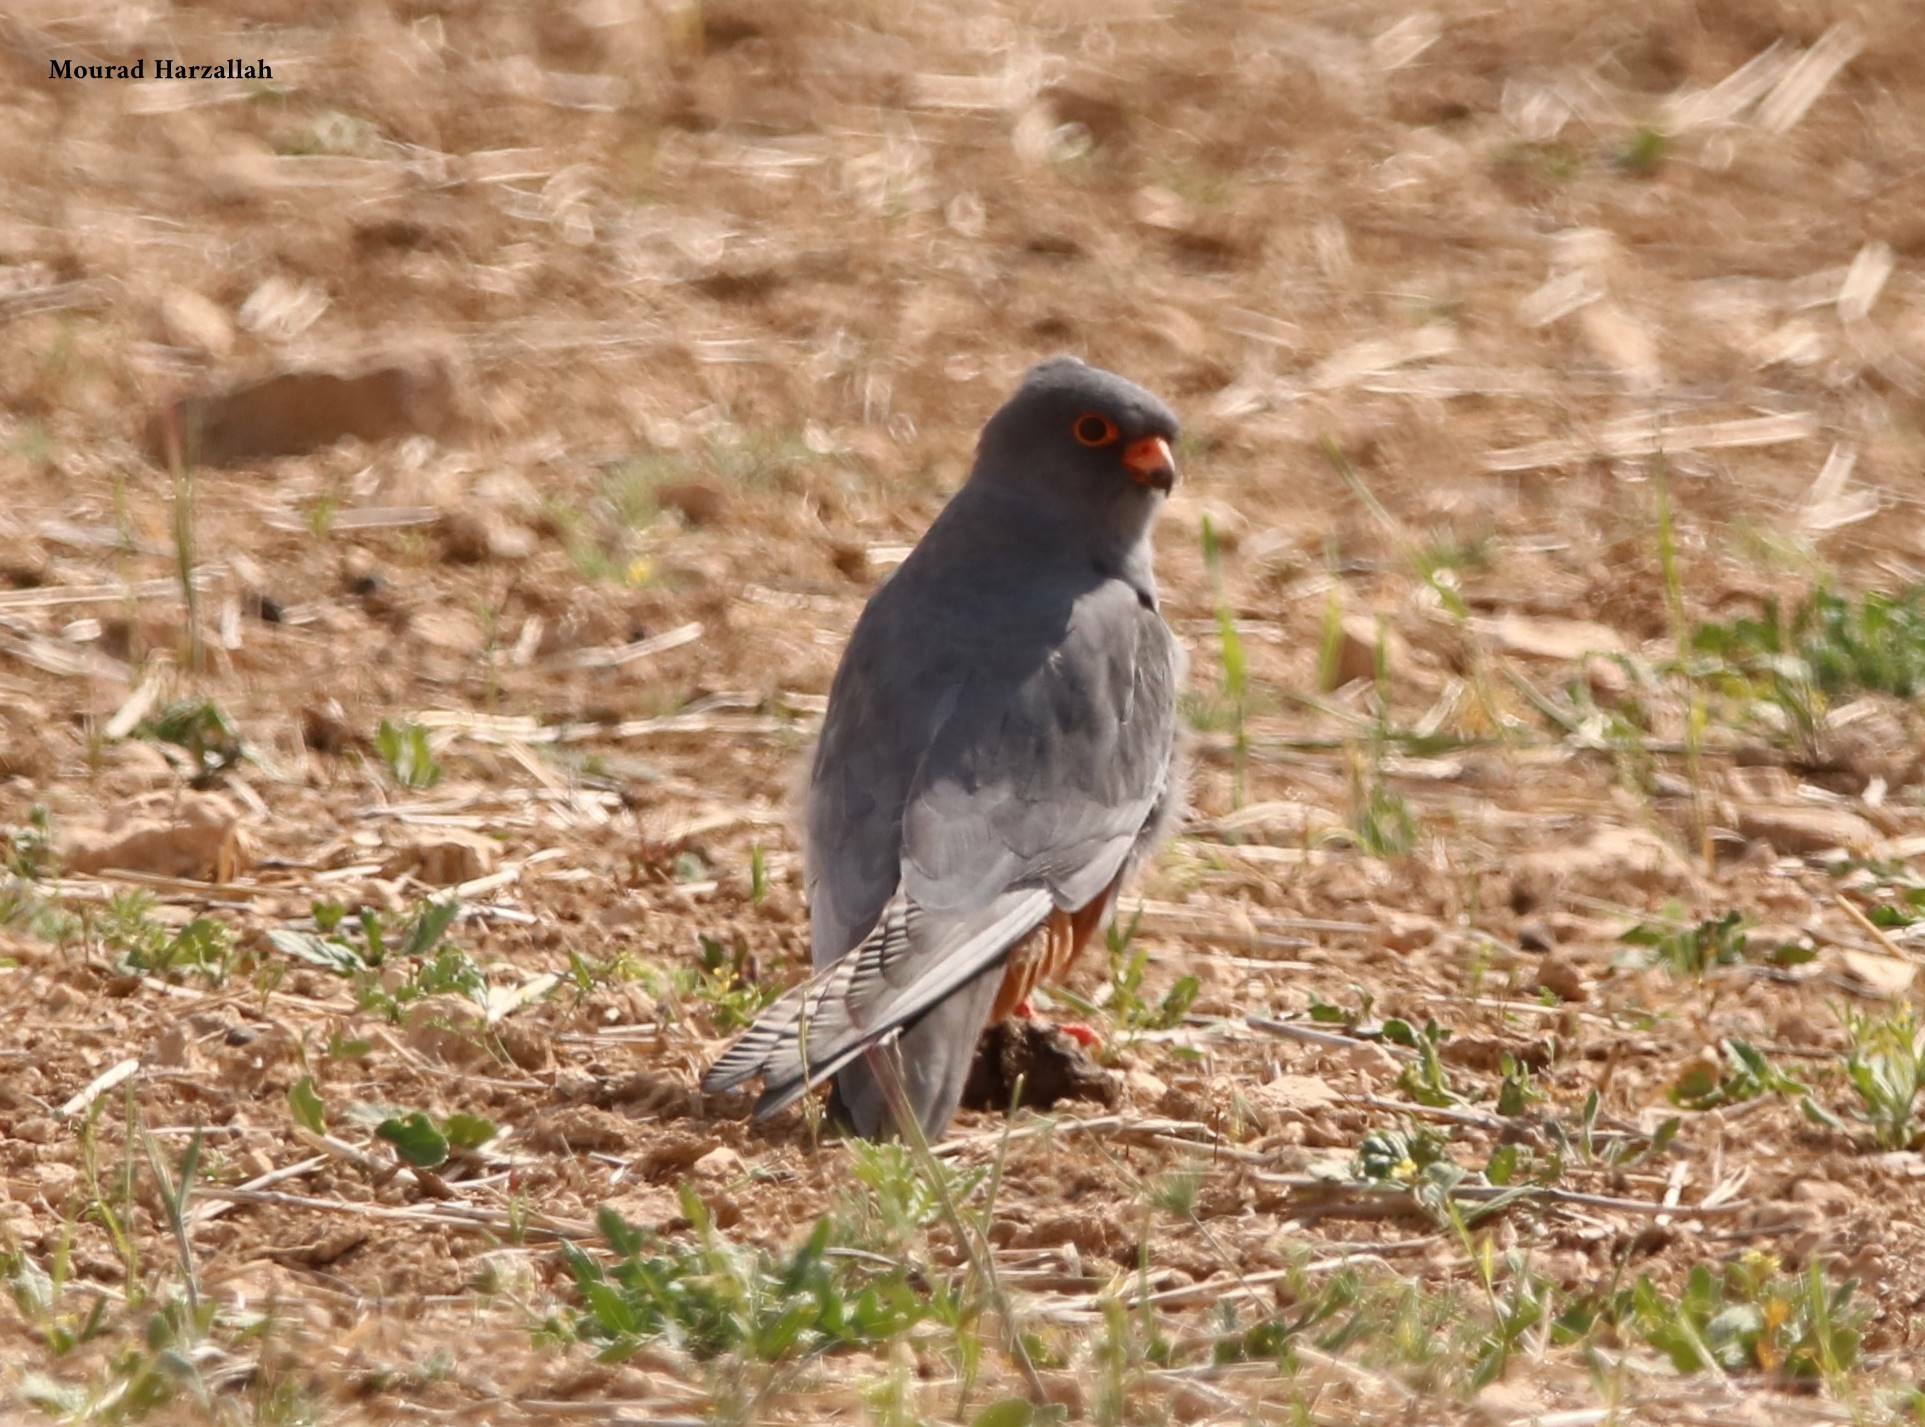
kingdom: Animalia
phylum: Chordata
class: Aves
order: Falconiformes
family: Falconidae
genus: Falco
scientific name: Falco vespertinus
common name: Red-footed falcon
